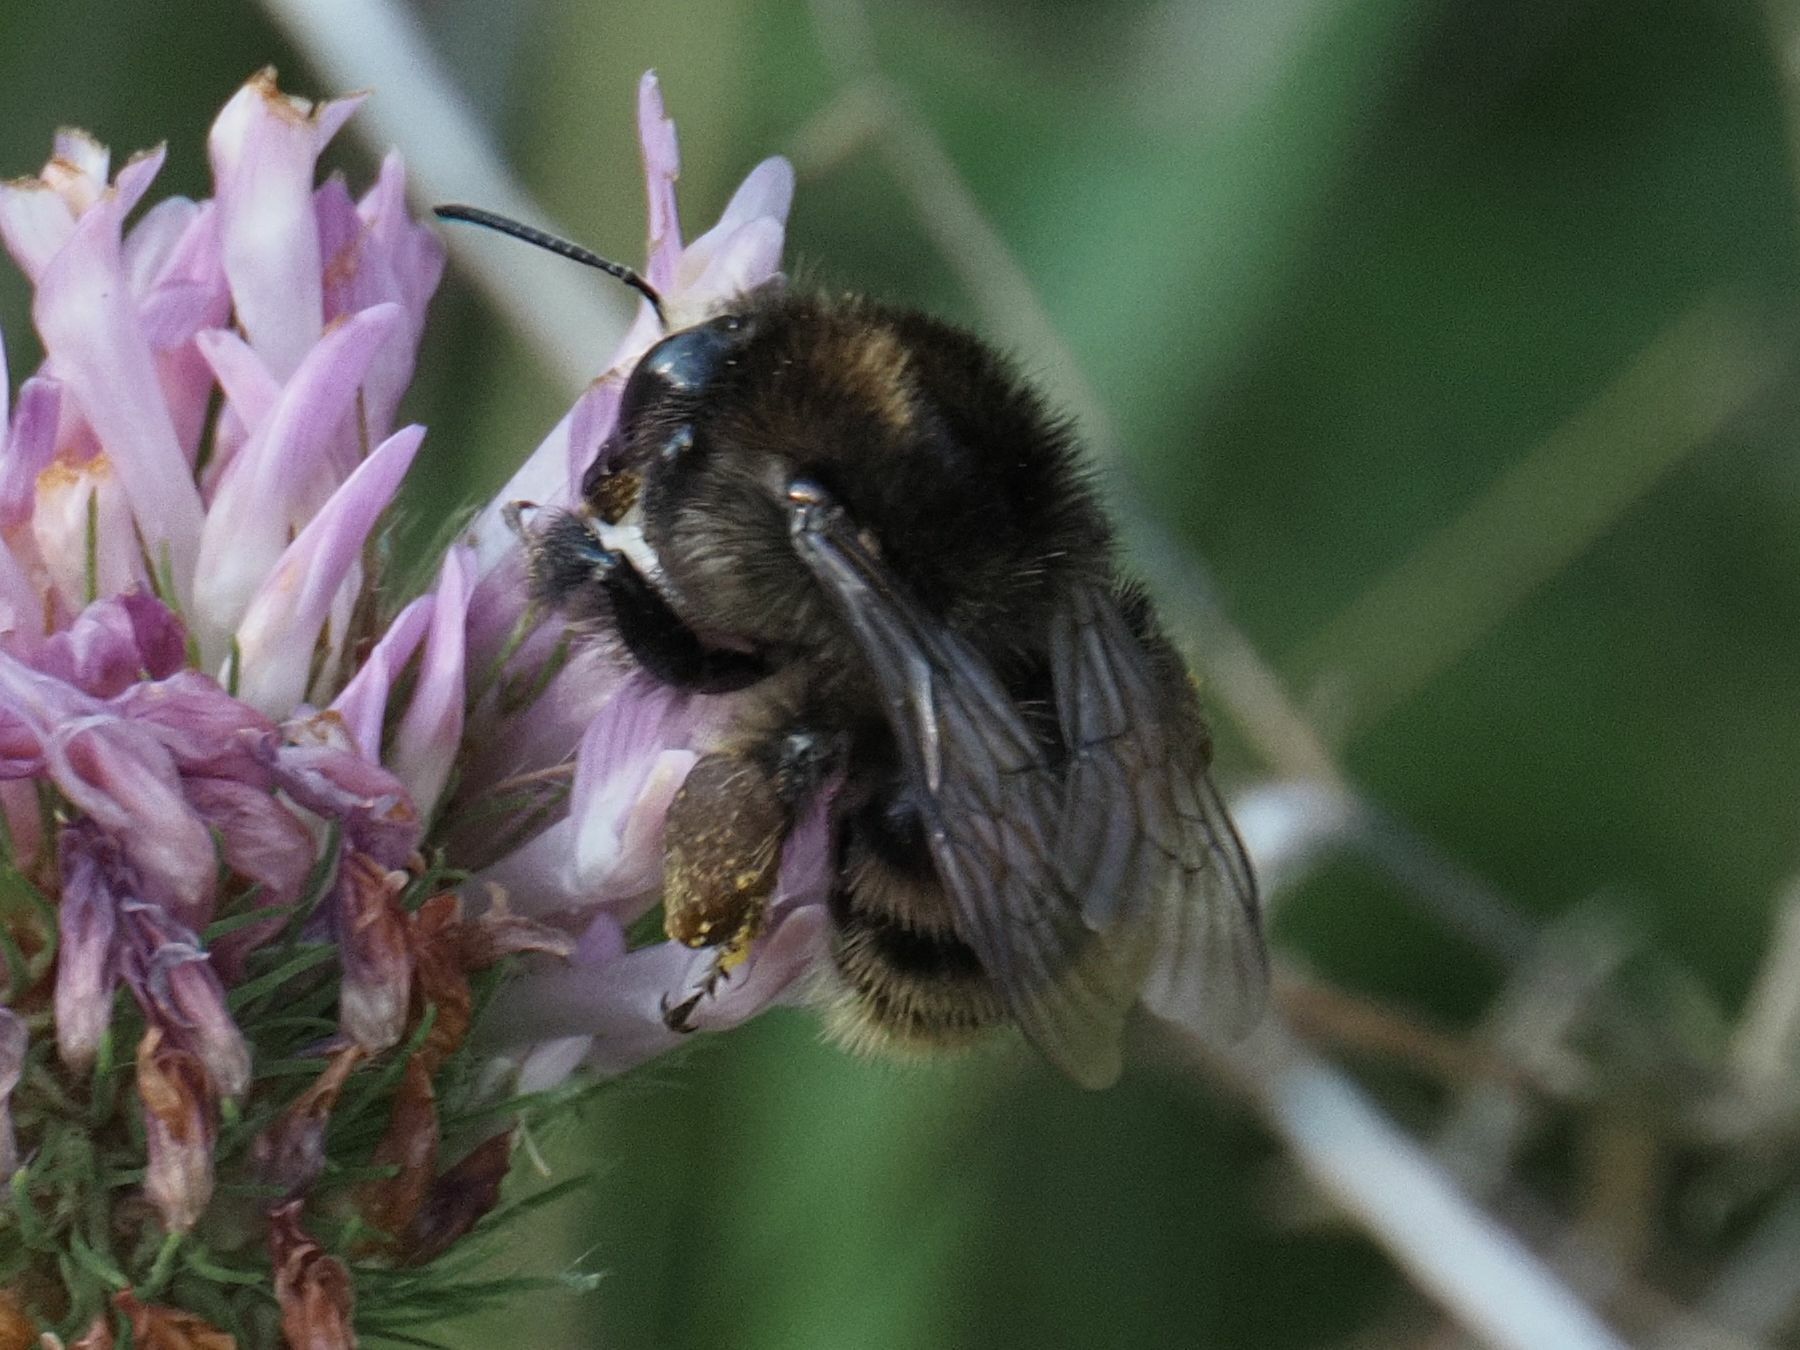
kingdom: Animalia
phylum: Arthropoda
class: Insecta
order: Hymenoptera
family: Apidae
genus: Bombus
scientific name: Bombus humilis
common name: Brown-banded carder-bee
